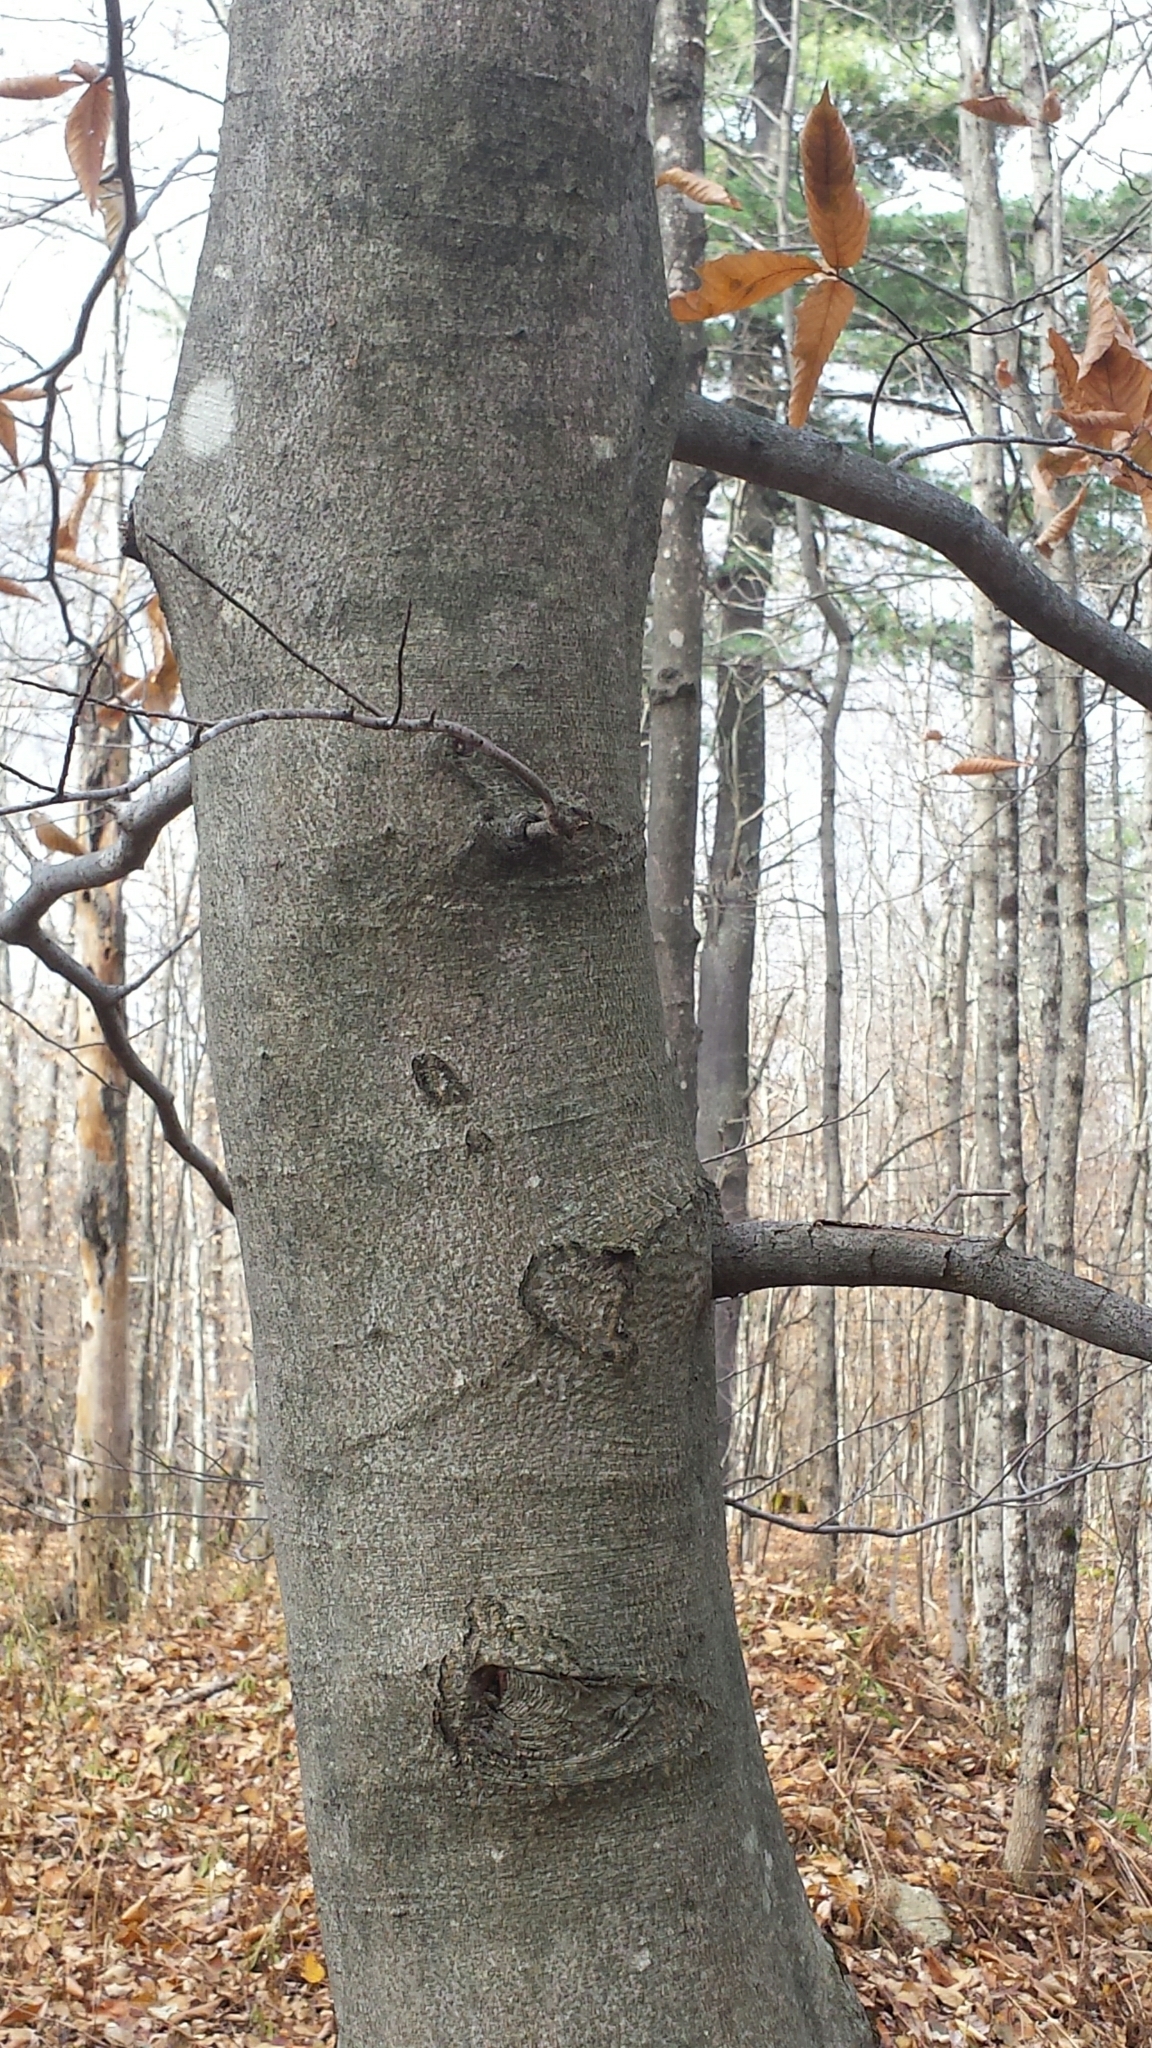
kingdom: Plantae
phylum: Tracheophyta
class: Magnoliopsida
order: Fagales
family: Fagaceae
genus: Fagus
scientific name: Fagus grandifolia
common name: American beech
